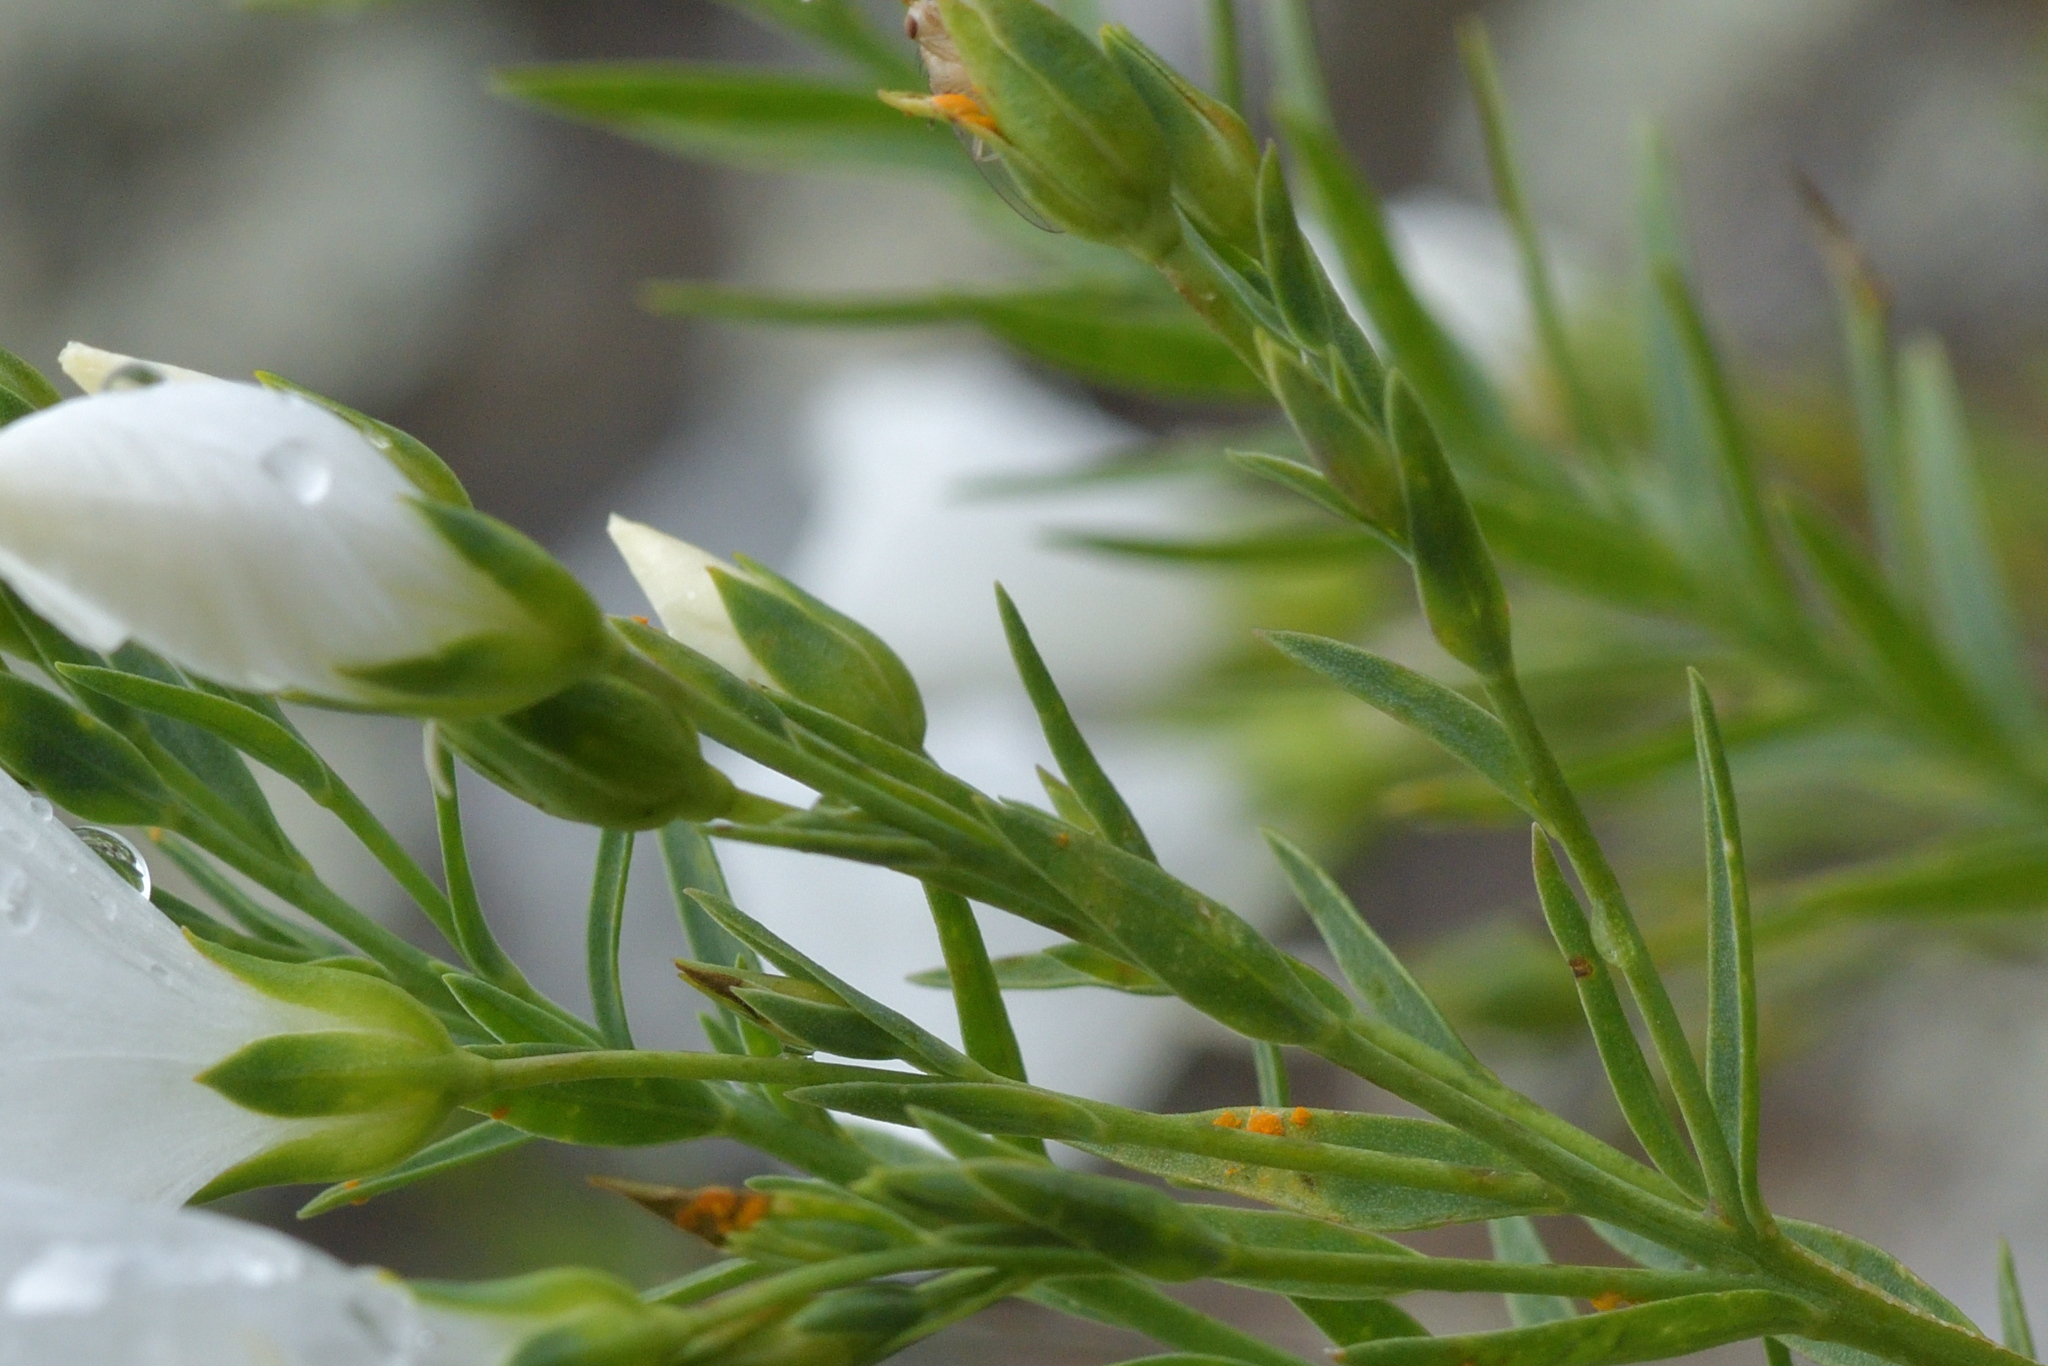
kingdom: Fungi
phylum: Basidiomycota
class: Pucciniomycetes
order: Pucciniales
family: Melampsoraceae
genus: Melampsora
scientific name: Melampsora lini
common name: Flax rust
